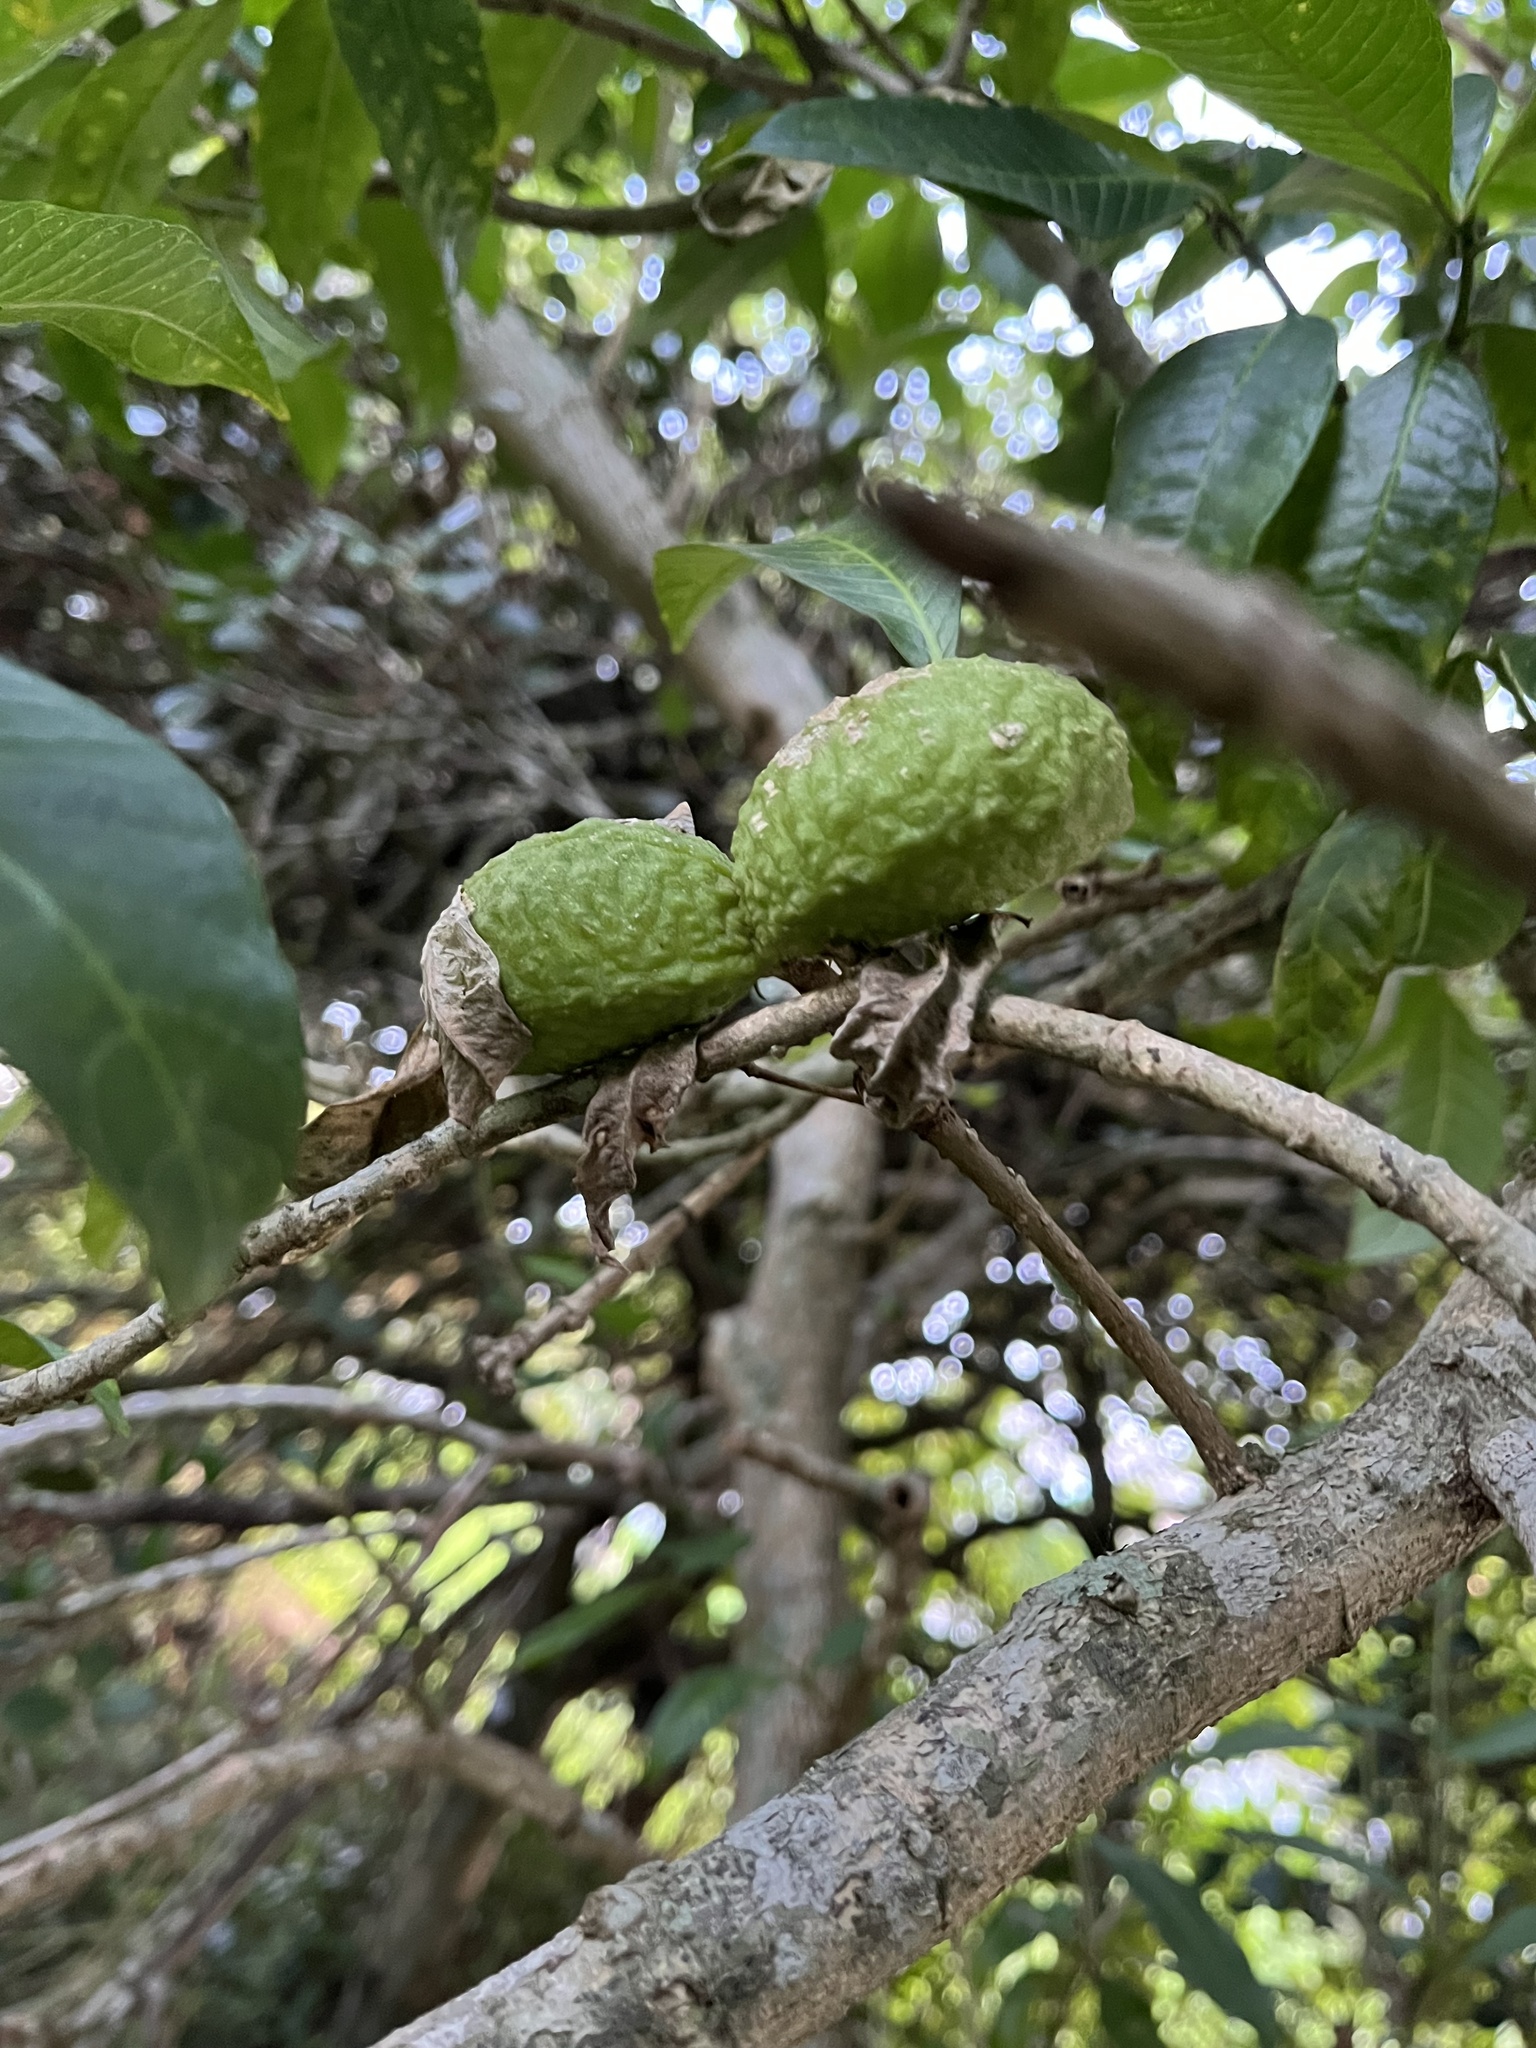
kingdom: Plantae
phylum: Tracheophyta
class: Magnoliopsida
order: Gentianales
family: Apocynaceae
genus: Tabernaemontana
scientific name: Tabernaemontana catharinensis
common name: Pinwheel-flower
